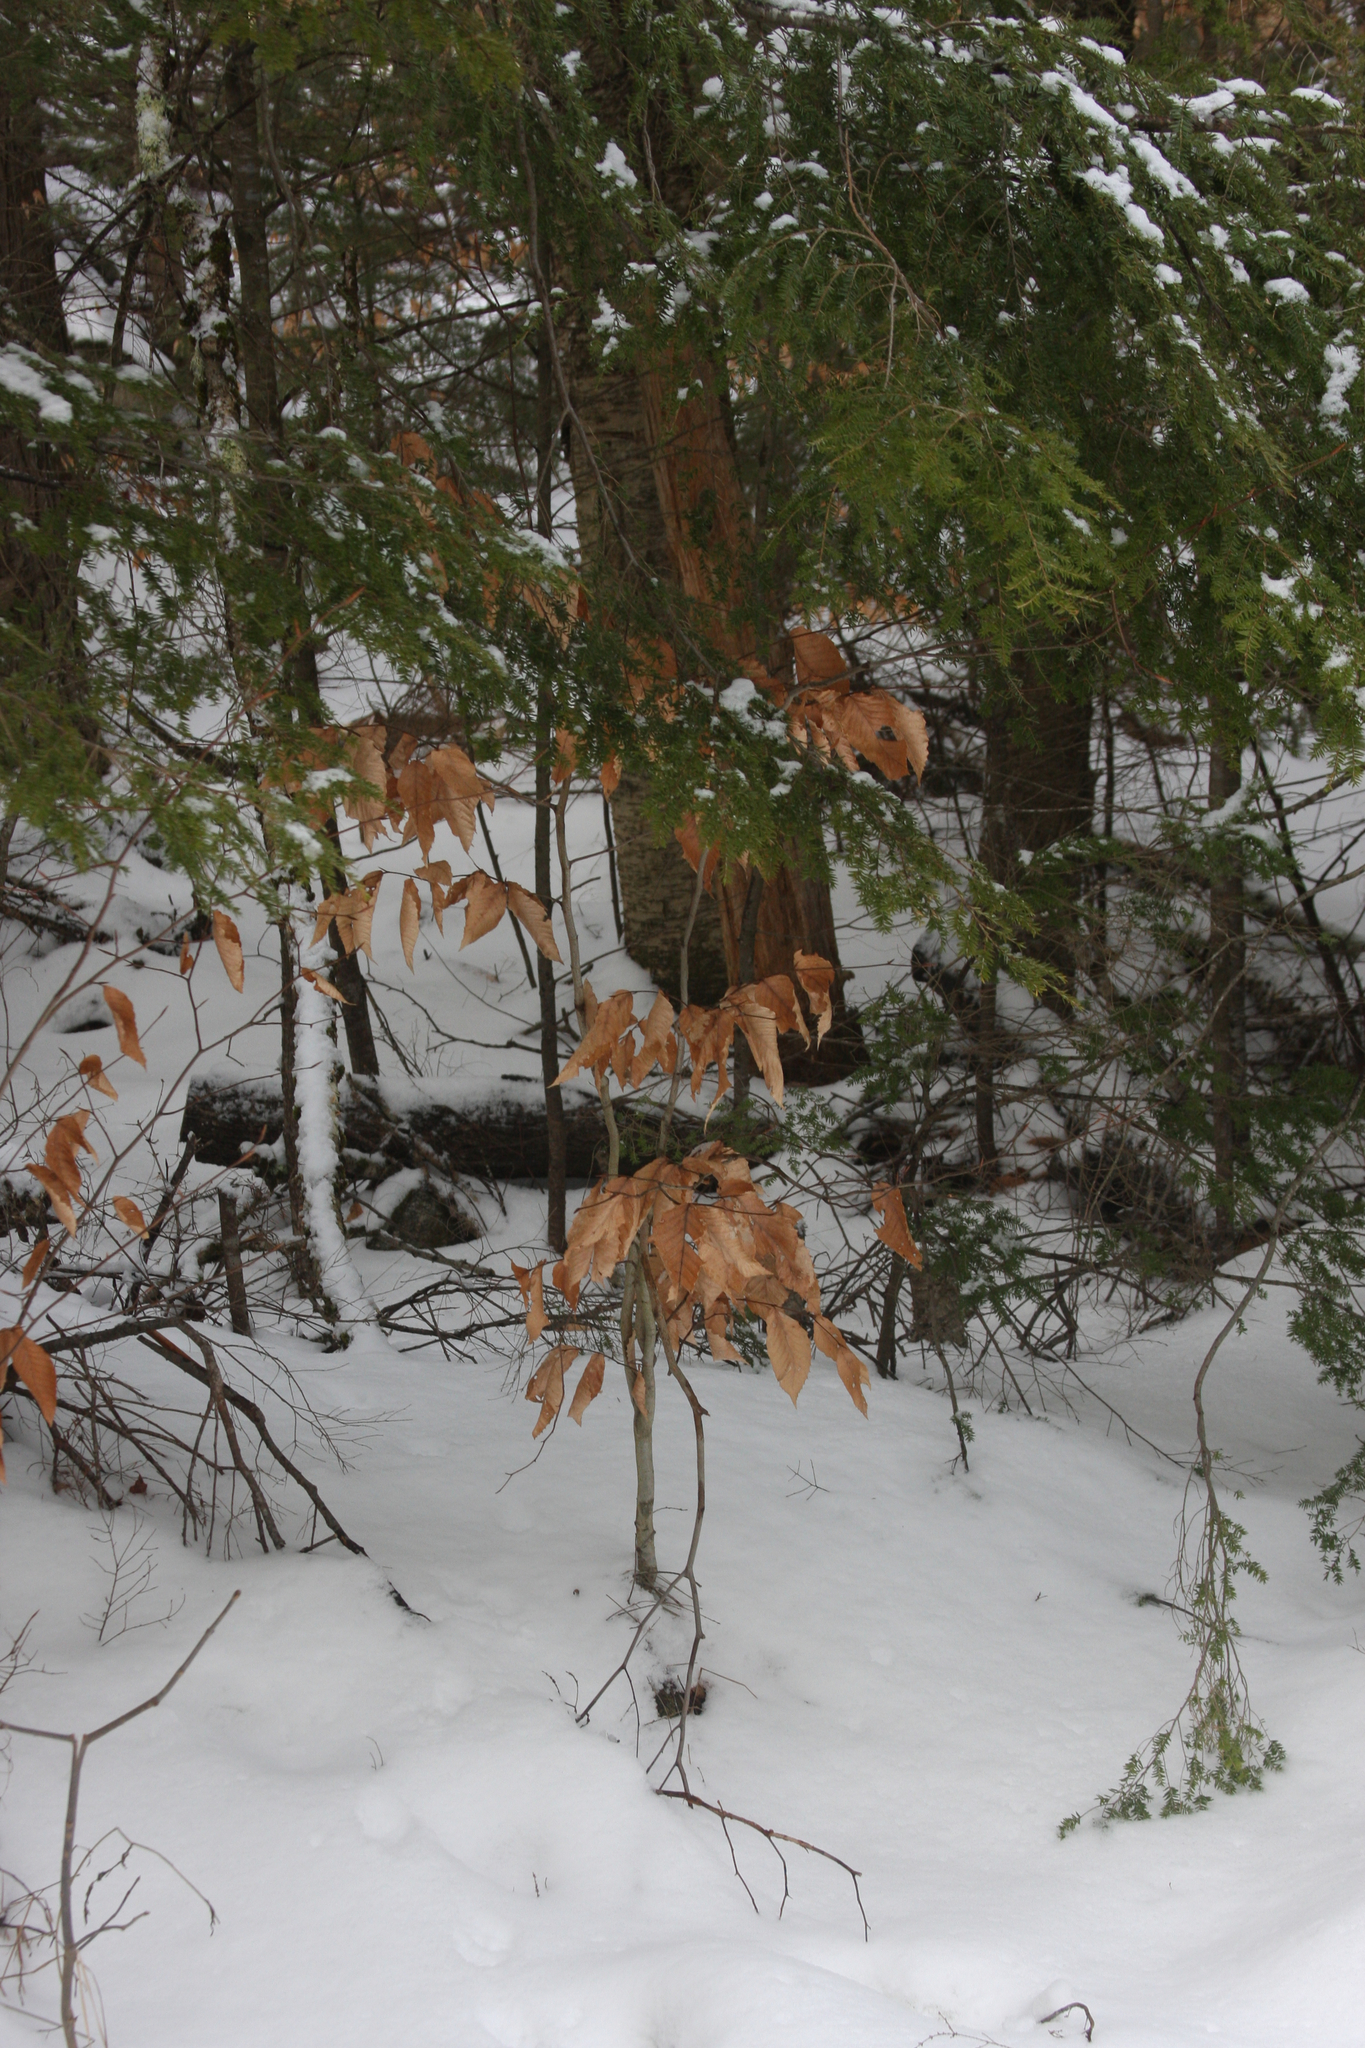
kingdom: Plantae
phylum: Tracheophyta
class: Magnoliopsida
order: Fagales
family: Fagaceae
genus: Fagus
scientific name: Fagus grandifolia
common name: American beech
